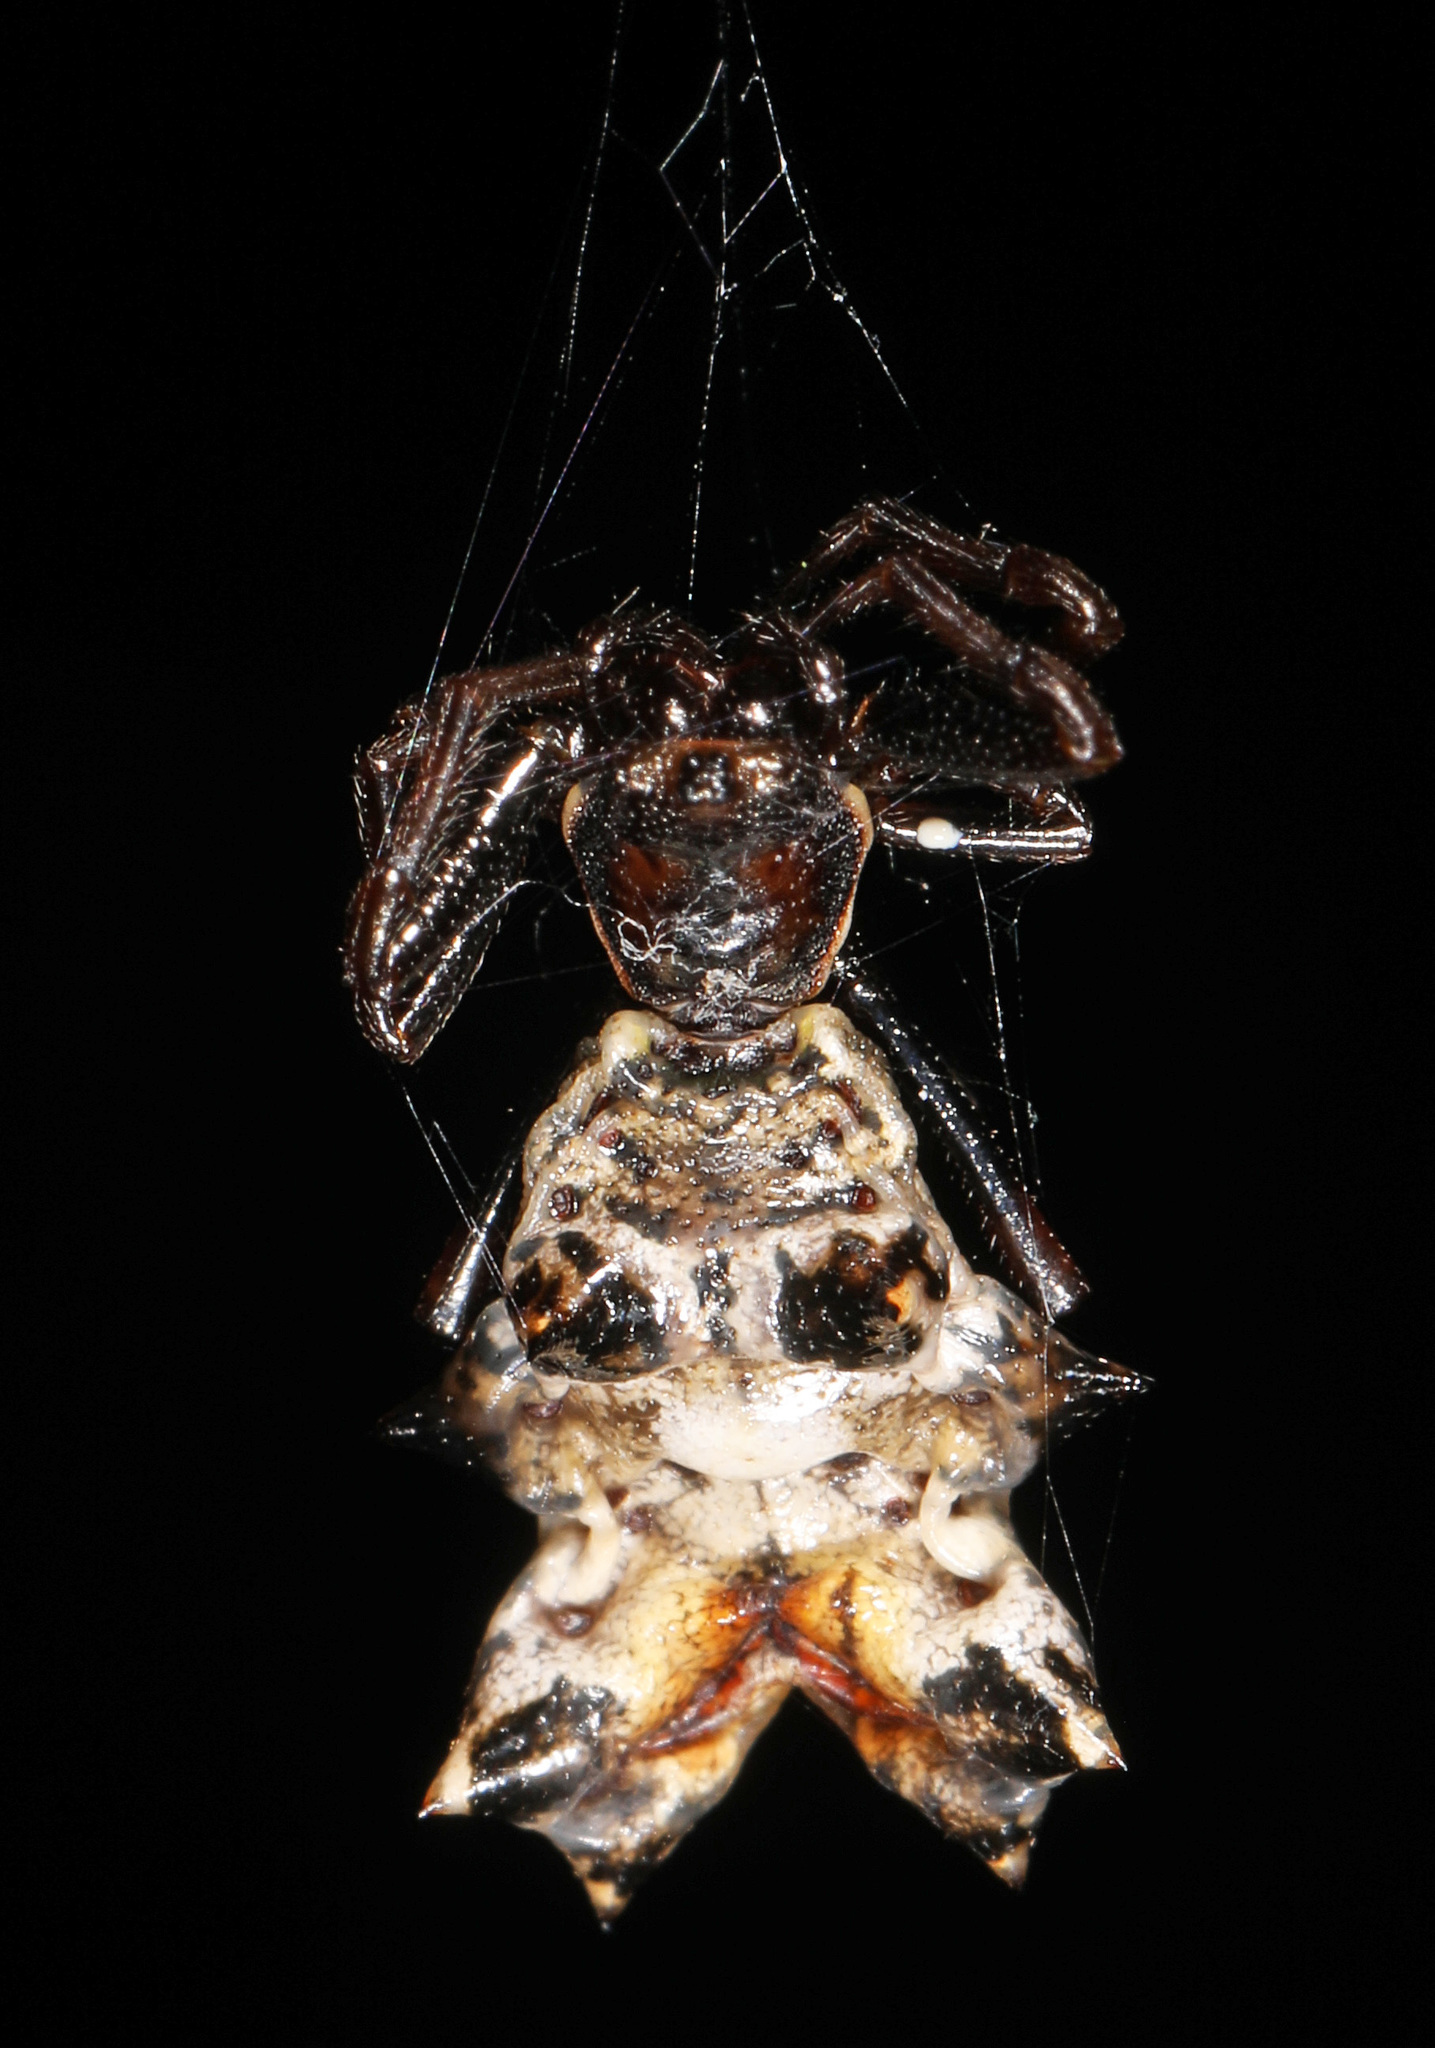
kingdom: Animalia
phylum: Arthropoda
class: Arachnida
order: Araneae
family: Araneidae
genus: Micrathena
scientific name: Micrathena gracilis
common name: Orb weavers
